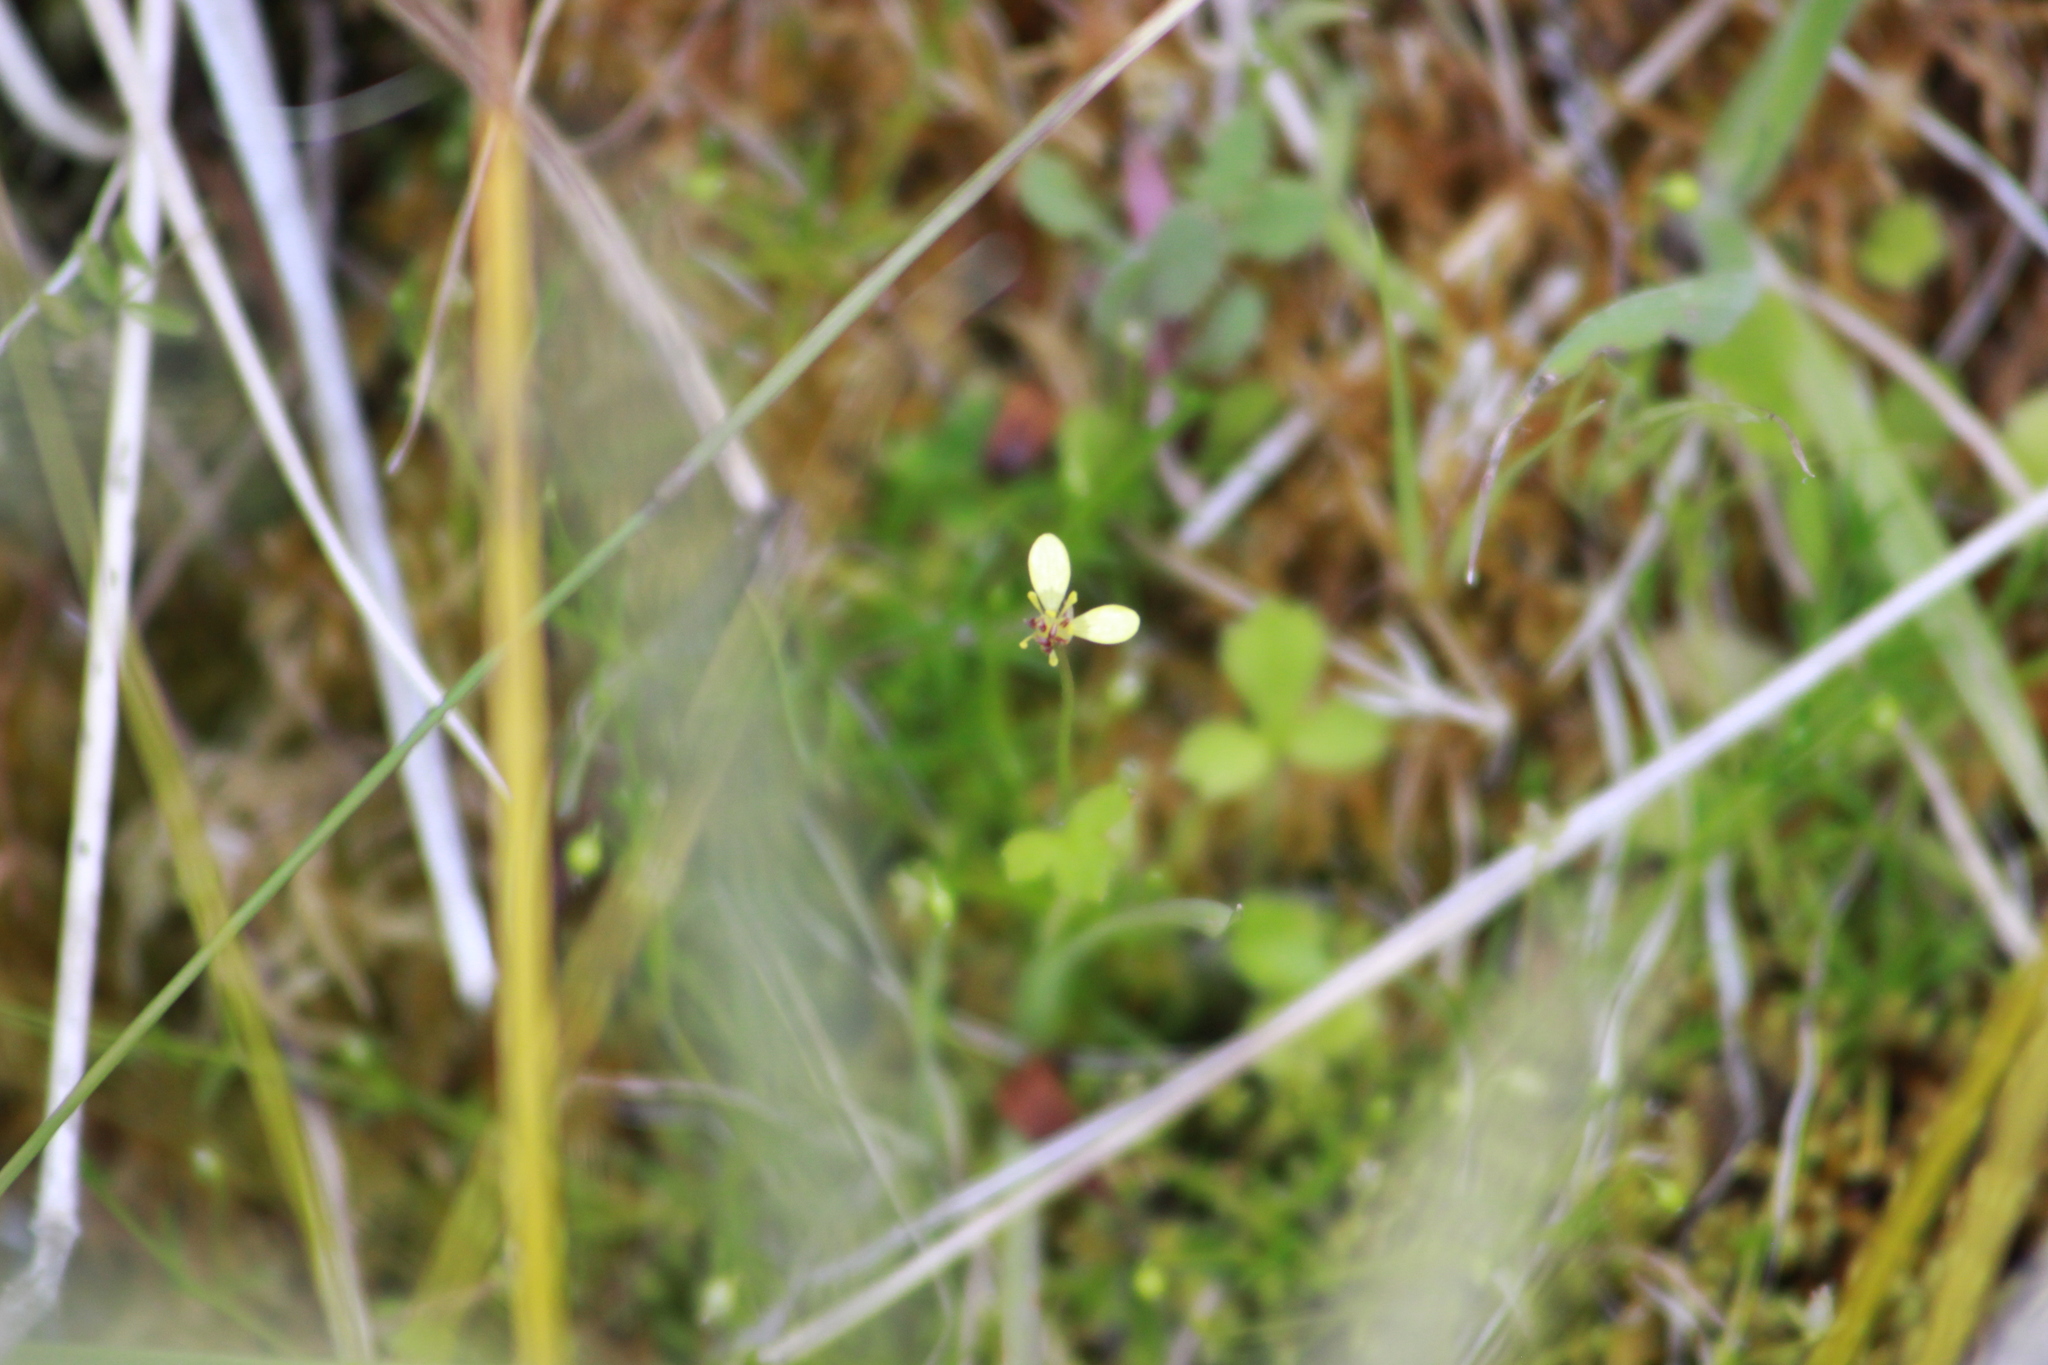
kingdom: Plantae
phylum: Tracheophyta
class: Magnoliopsida
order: Ranunculales
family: Ranunculaceae
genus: Ranunculus
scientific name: Ranunculus reflexus
